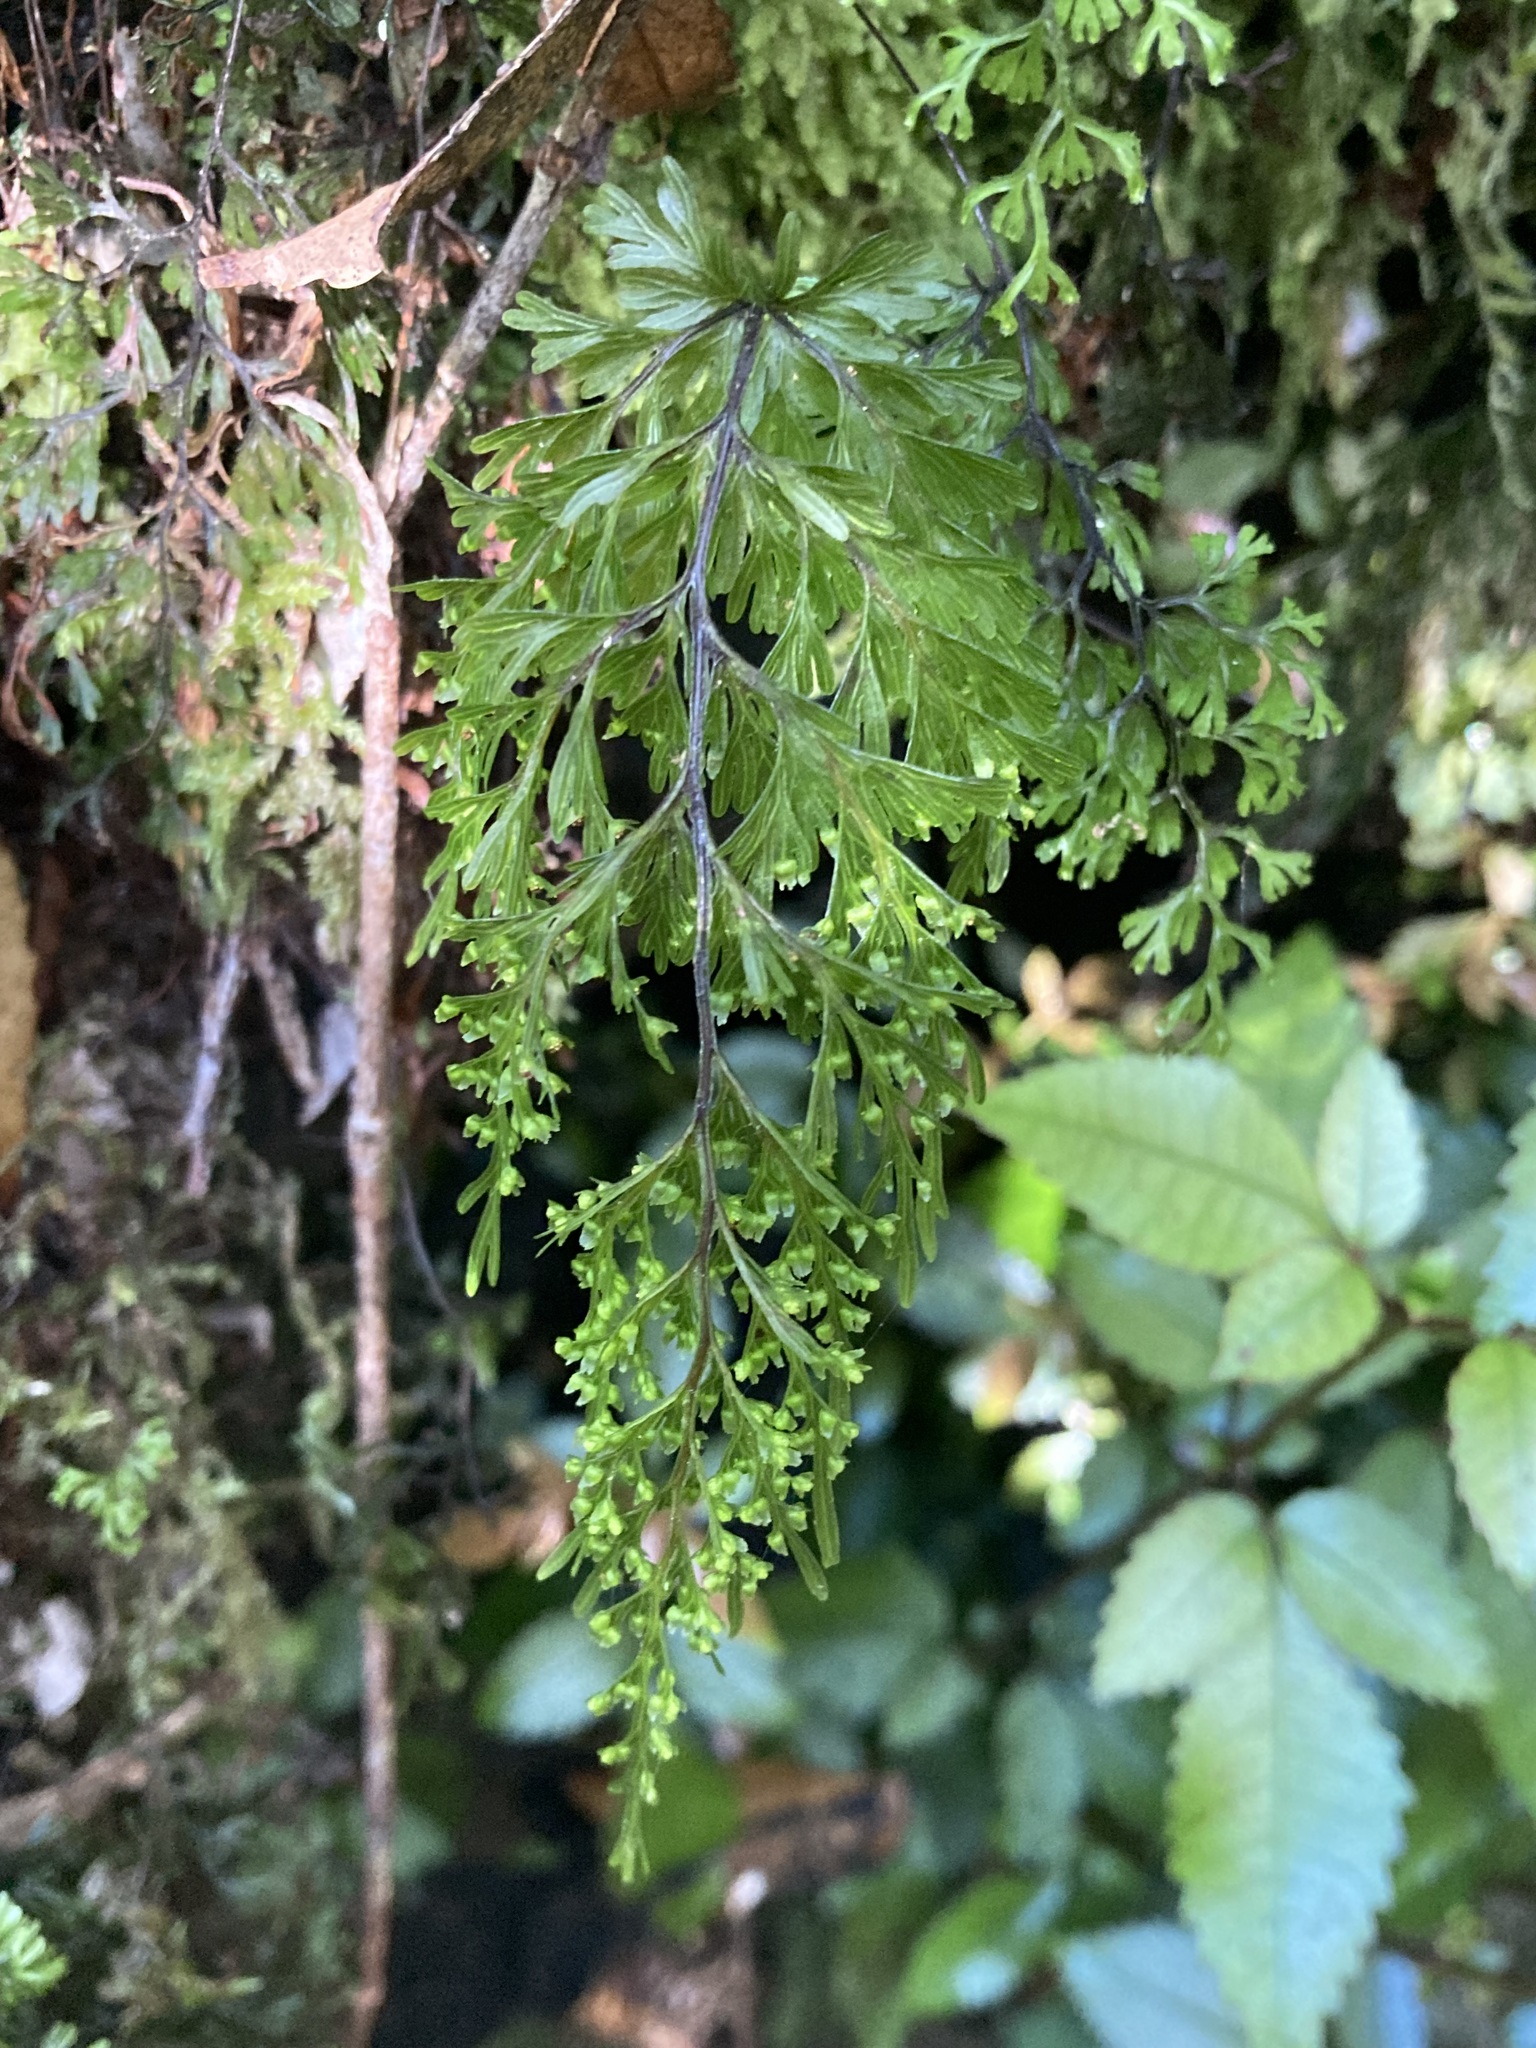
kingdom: Plantae
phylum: Tracheophyta
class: Polypodiopsida
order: Hymenophyllales
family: Hymenophyllaceae
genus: Hymenophyllum
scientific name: Hymenophyllum demissum
